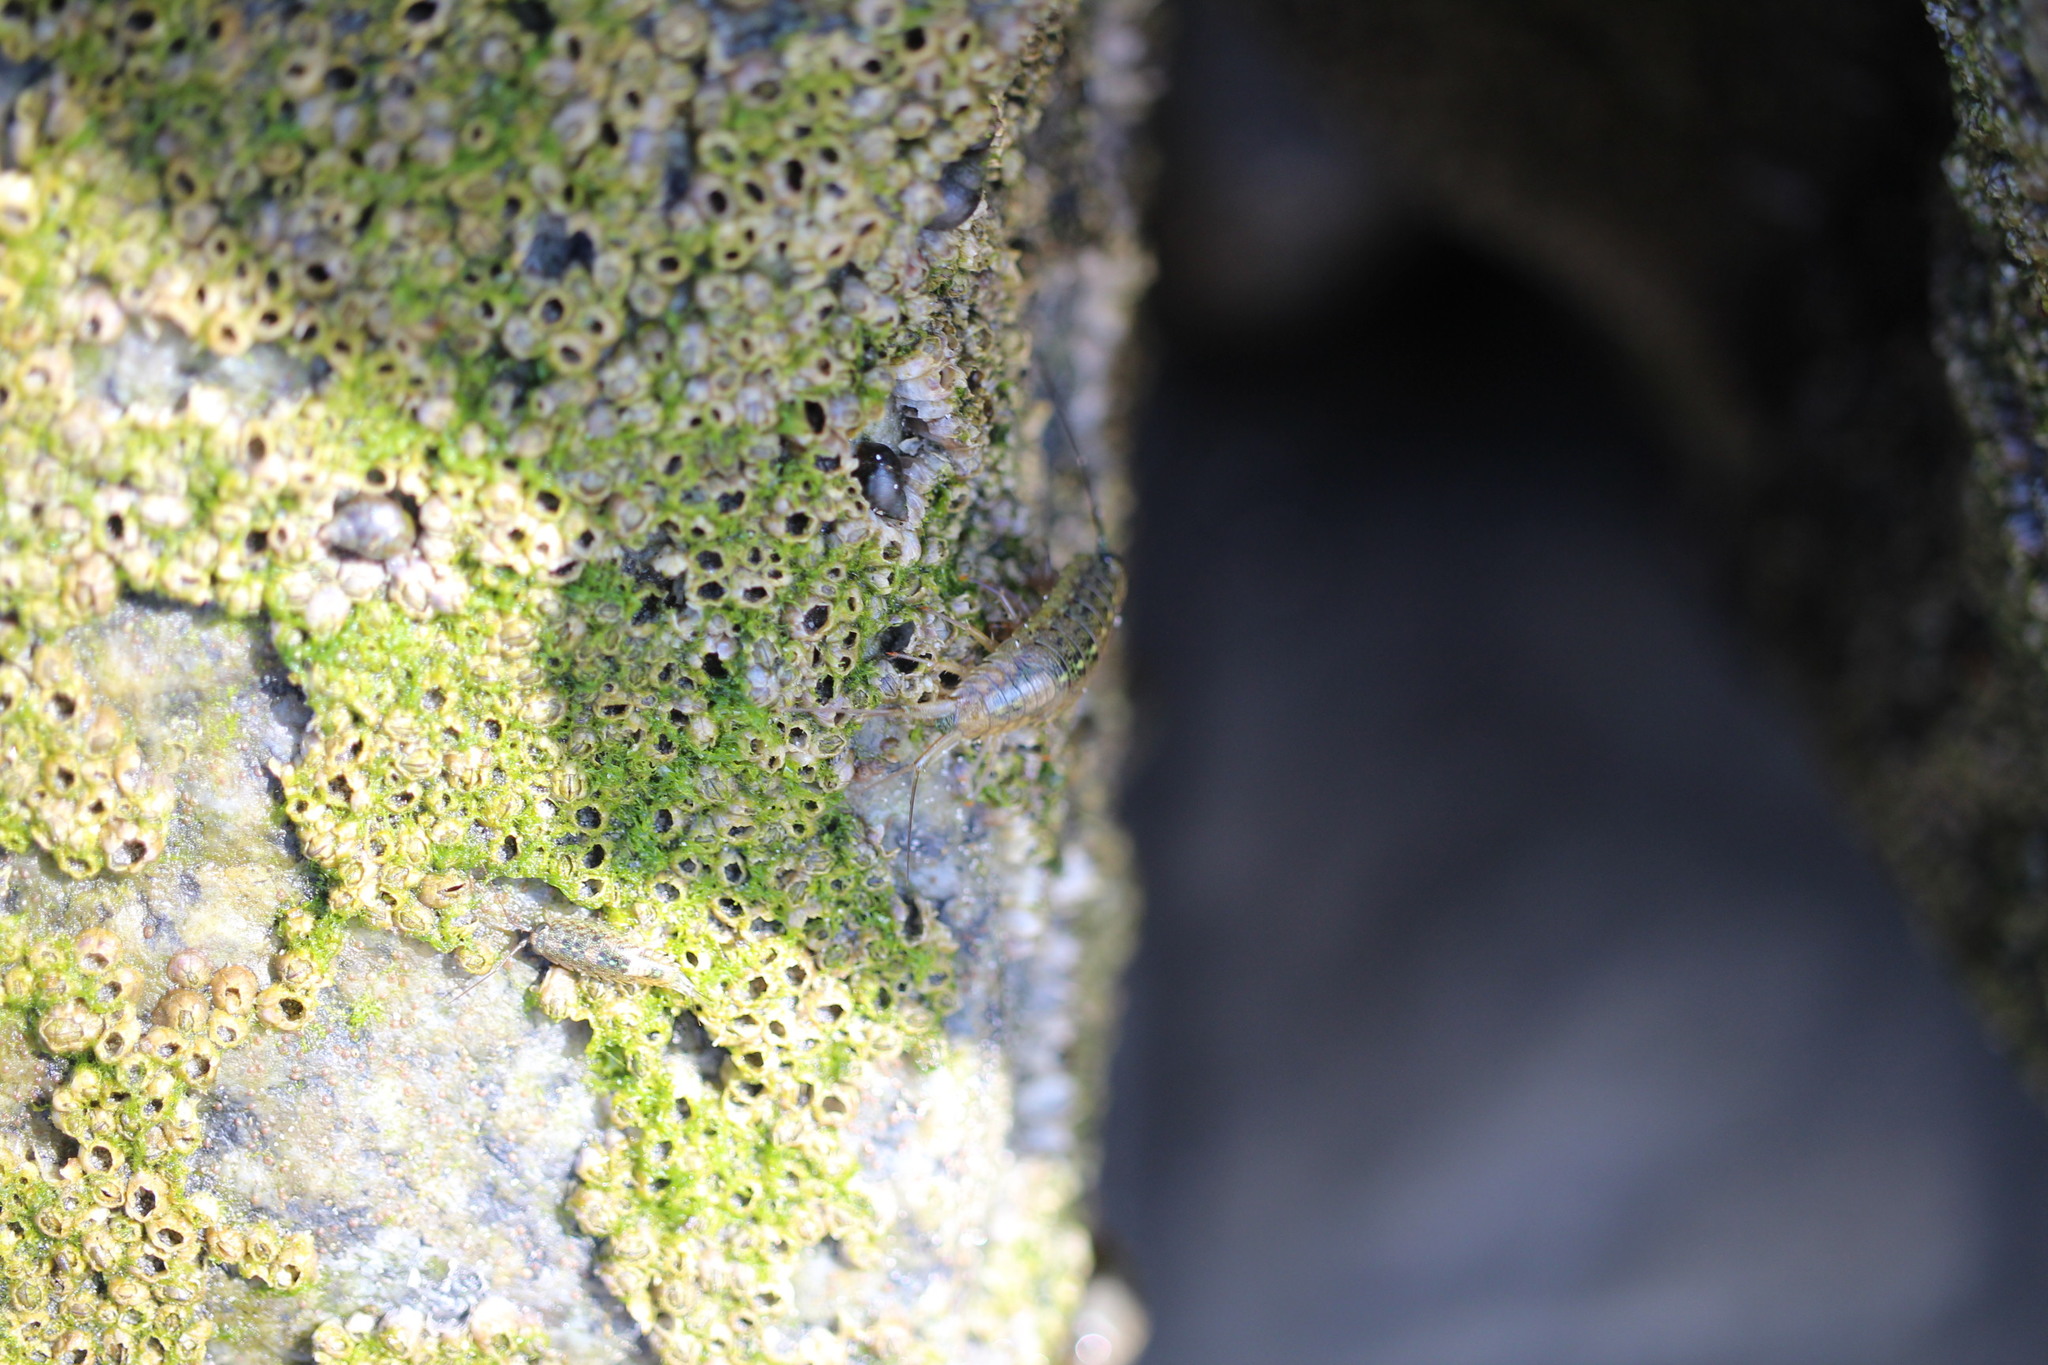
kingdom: Animalia
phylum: Arthropoda
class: Malacostraca
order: Isopoda
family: Ligiidae
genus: Ligia
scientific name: Ligia occidentalis
